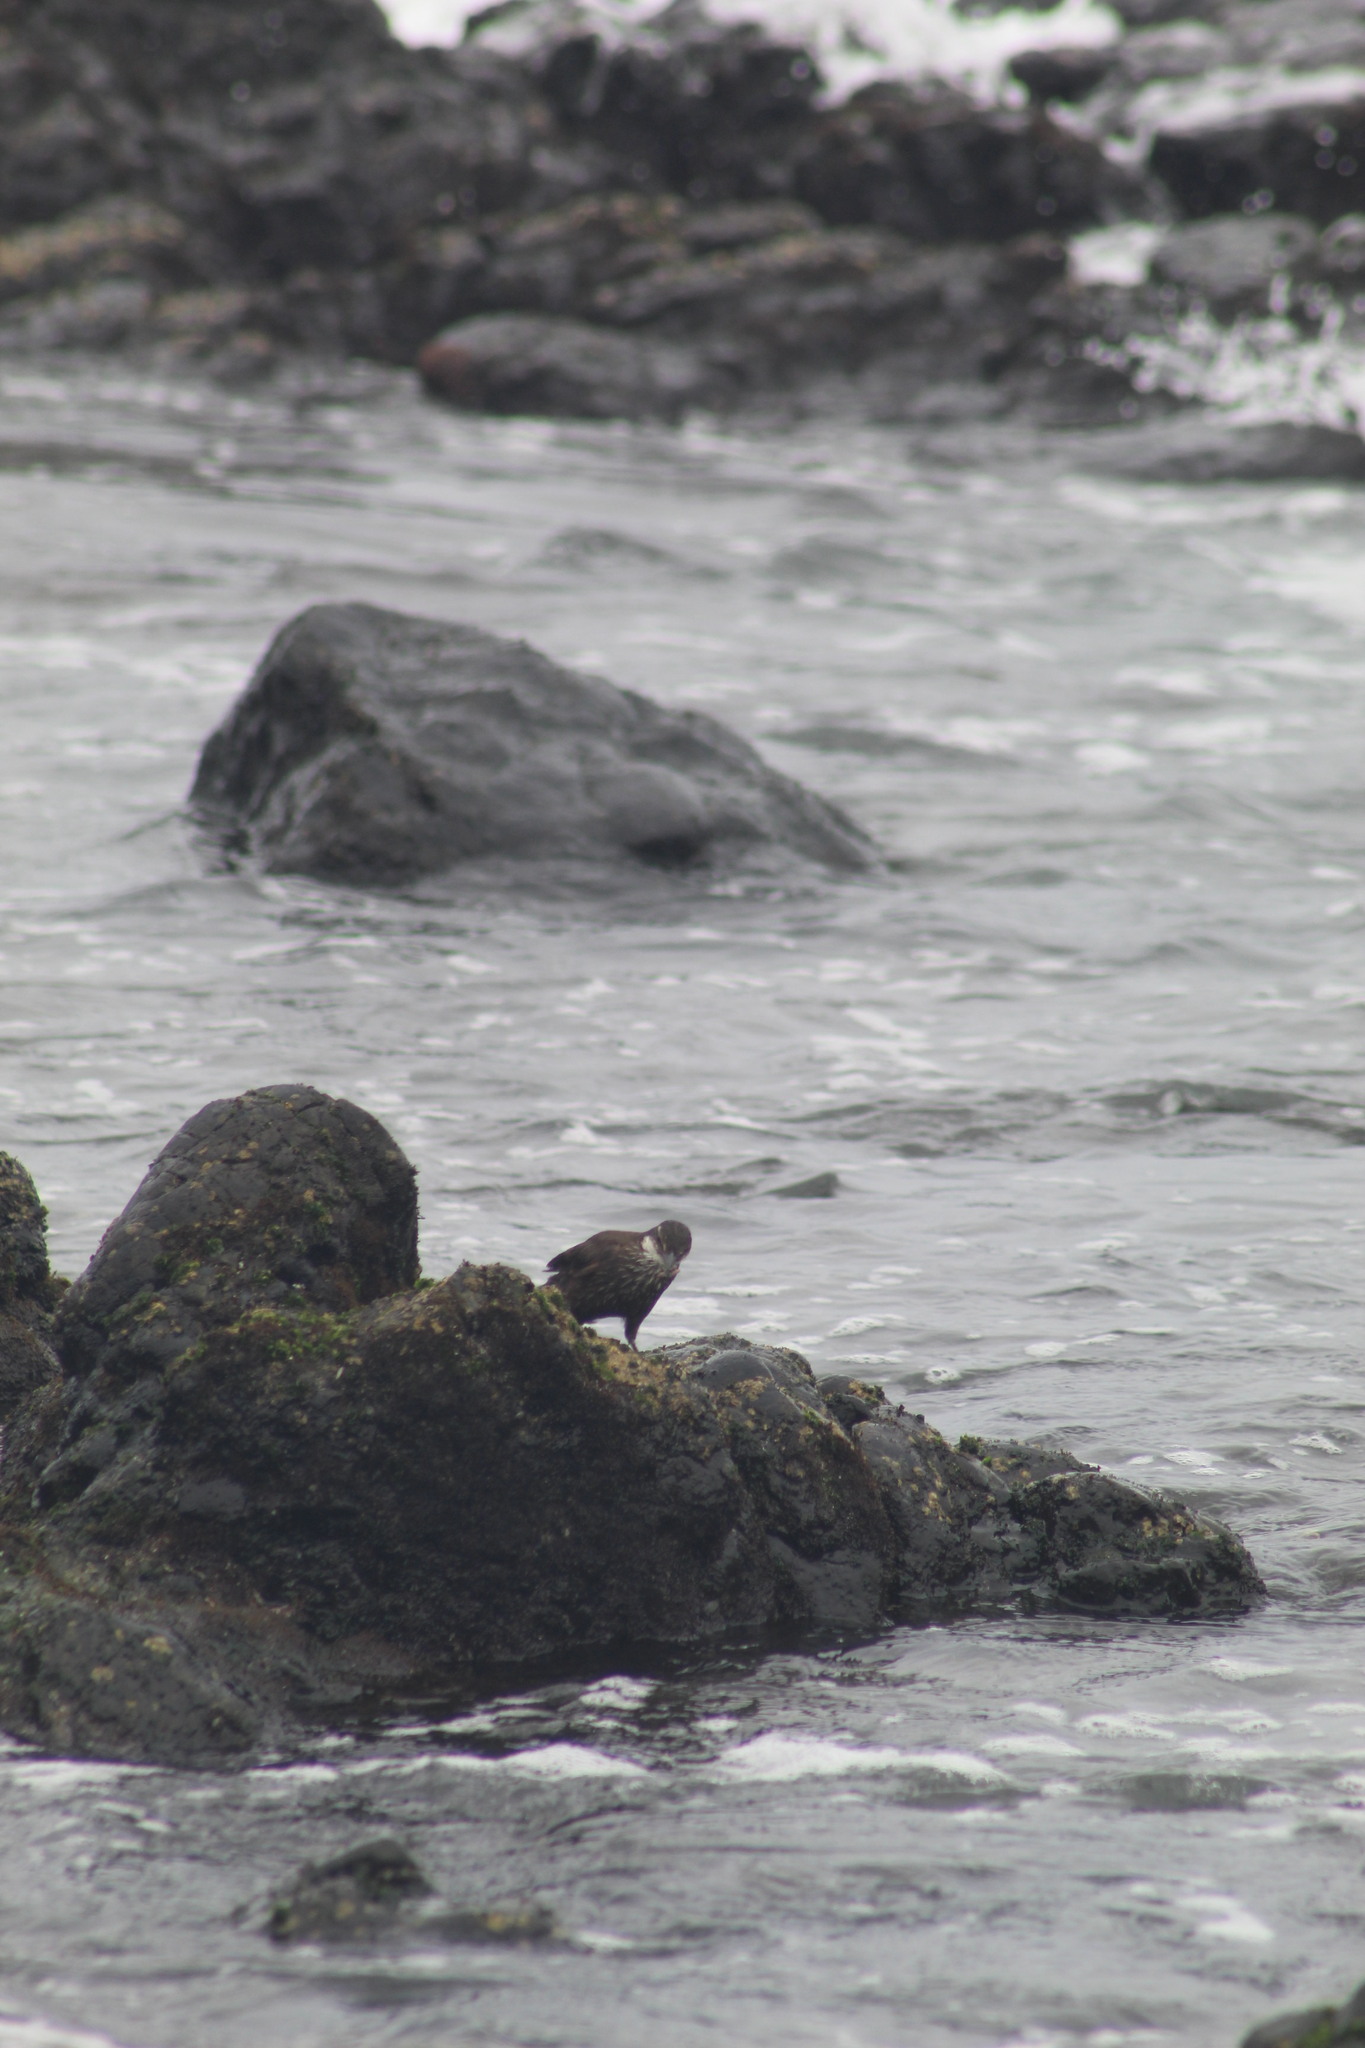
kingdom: Animalia
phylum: Chordata
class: Aves
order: Passeriformes
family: Furnariidae
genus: Cinclodes
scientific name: Cinclodes nigrofumosus
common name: Chilean seaside cinclodes
